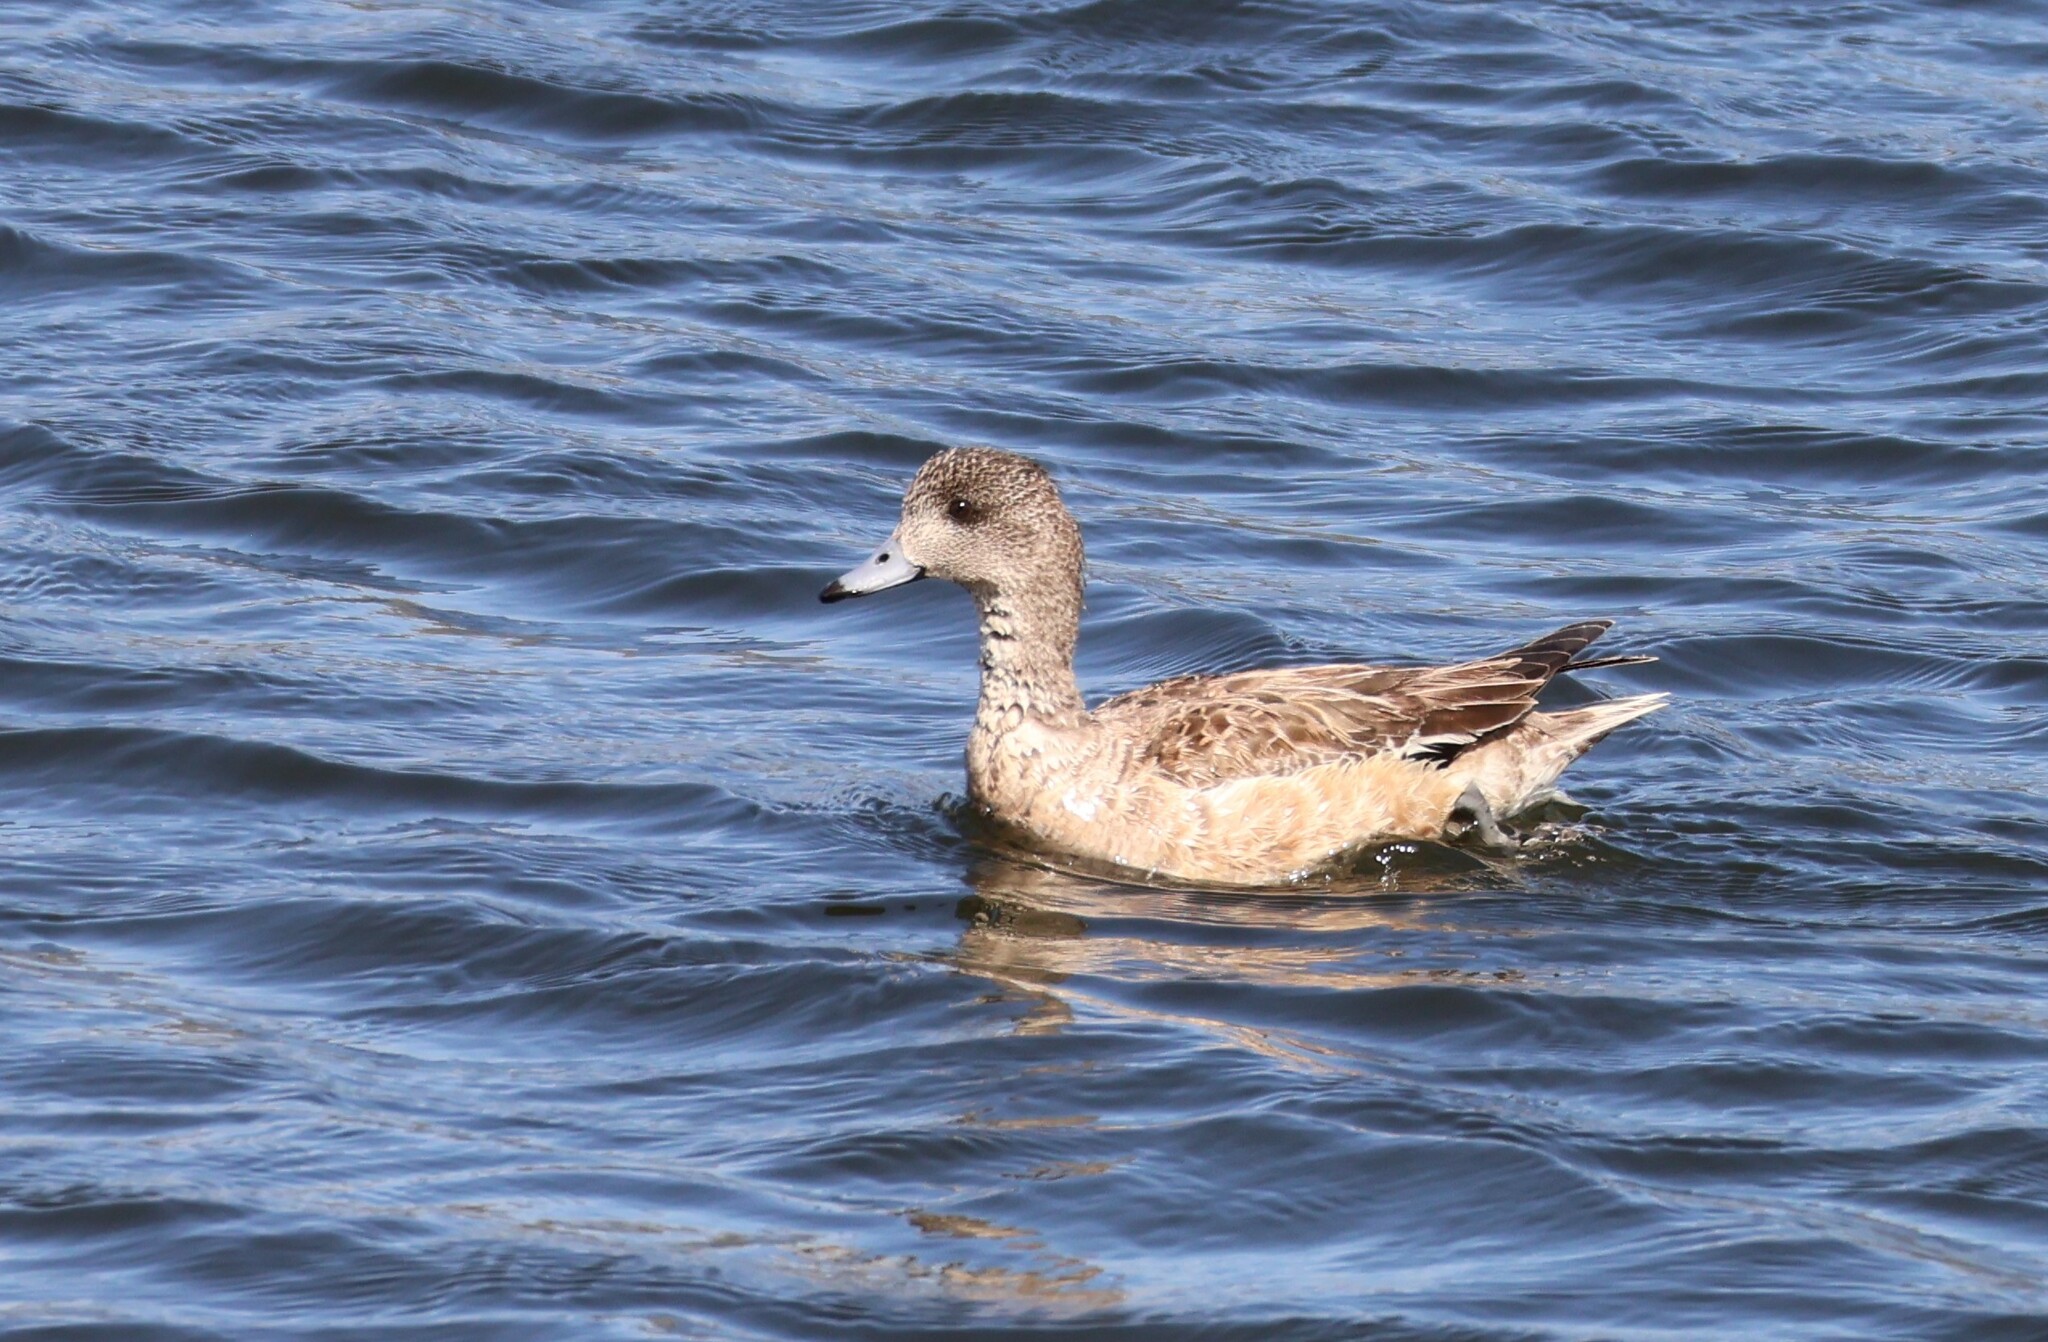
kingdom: Animalia
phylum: Chordata
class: Aves
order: Anseriformes
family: Anatidae
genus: Mareca
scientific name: Mareca americana
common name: American wigeon
